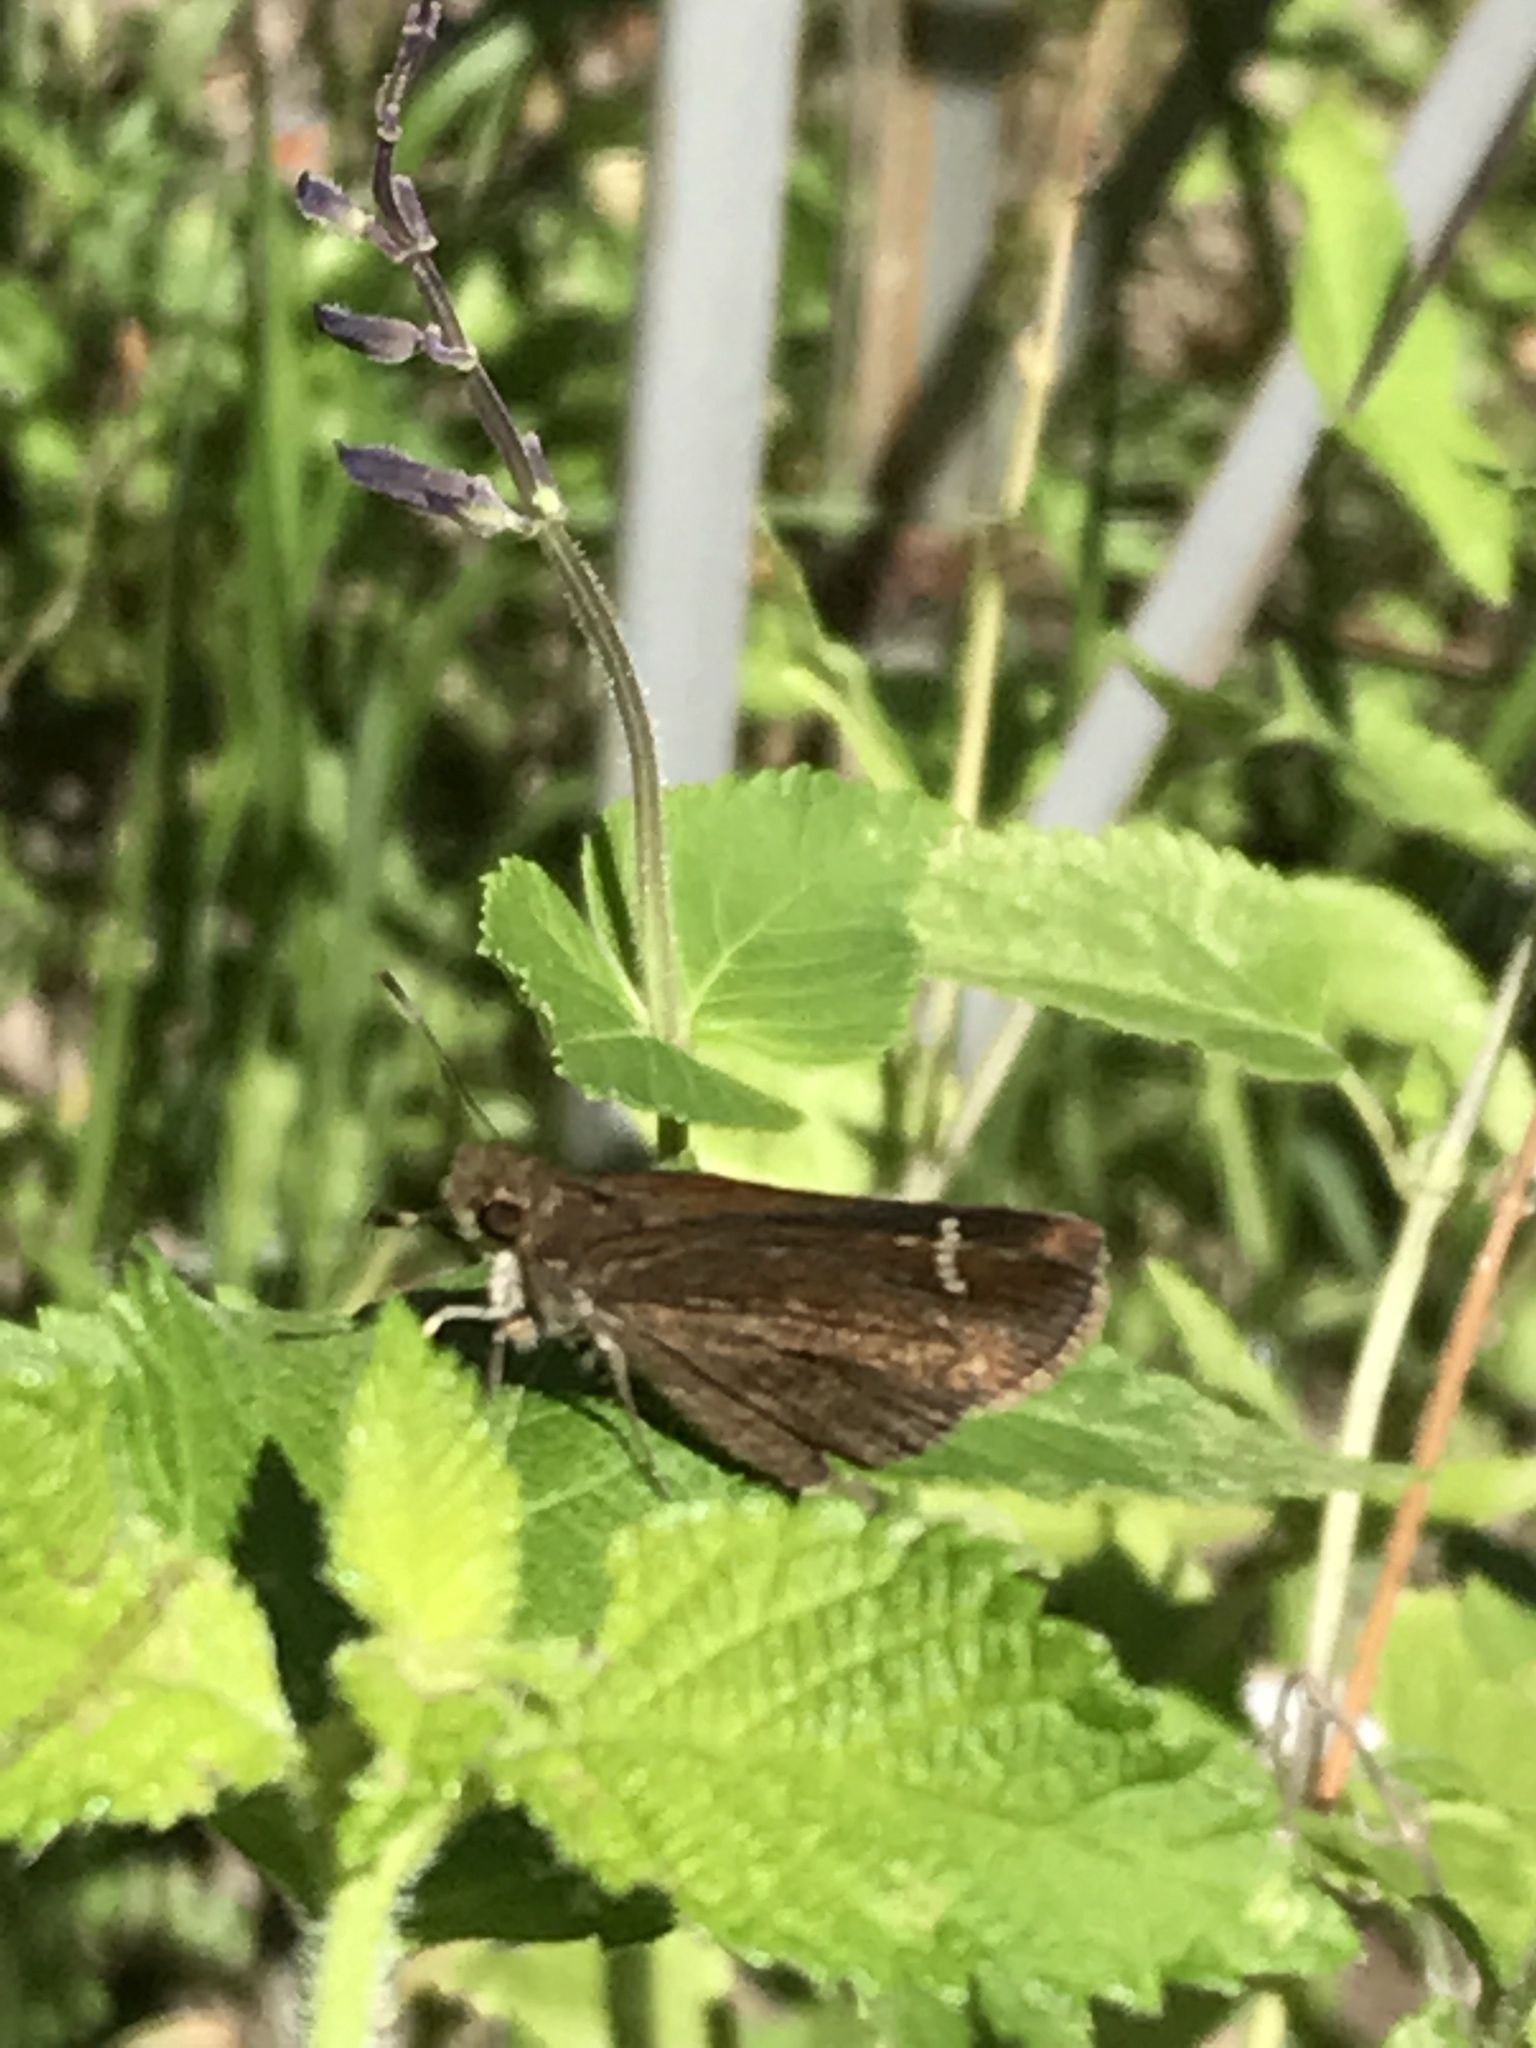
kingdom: Animalia
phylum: Arthropoda
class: Insecta
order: Lepidoptera
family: Hesperiidae
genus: Lerema
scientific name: Lerema accius
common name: Clouded skipper
